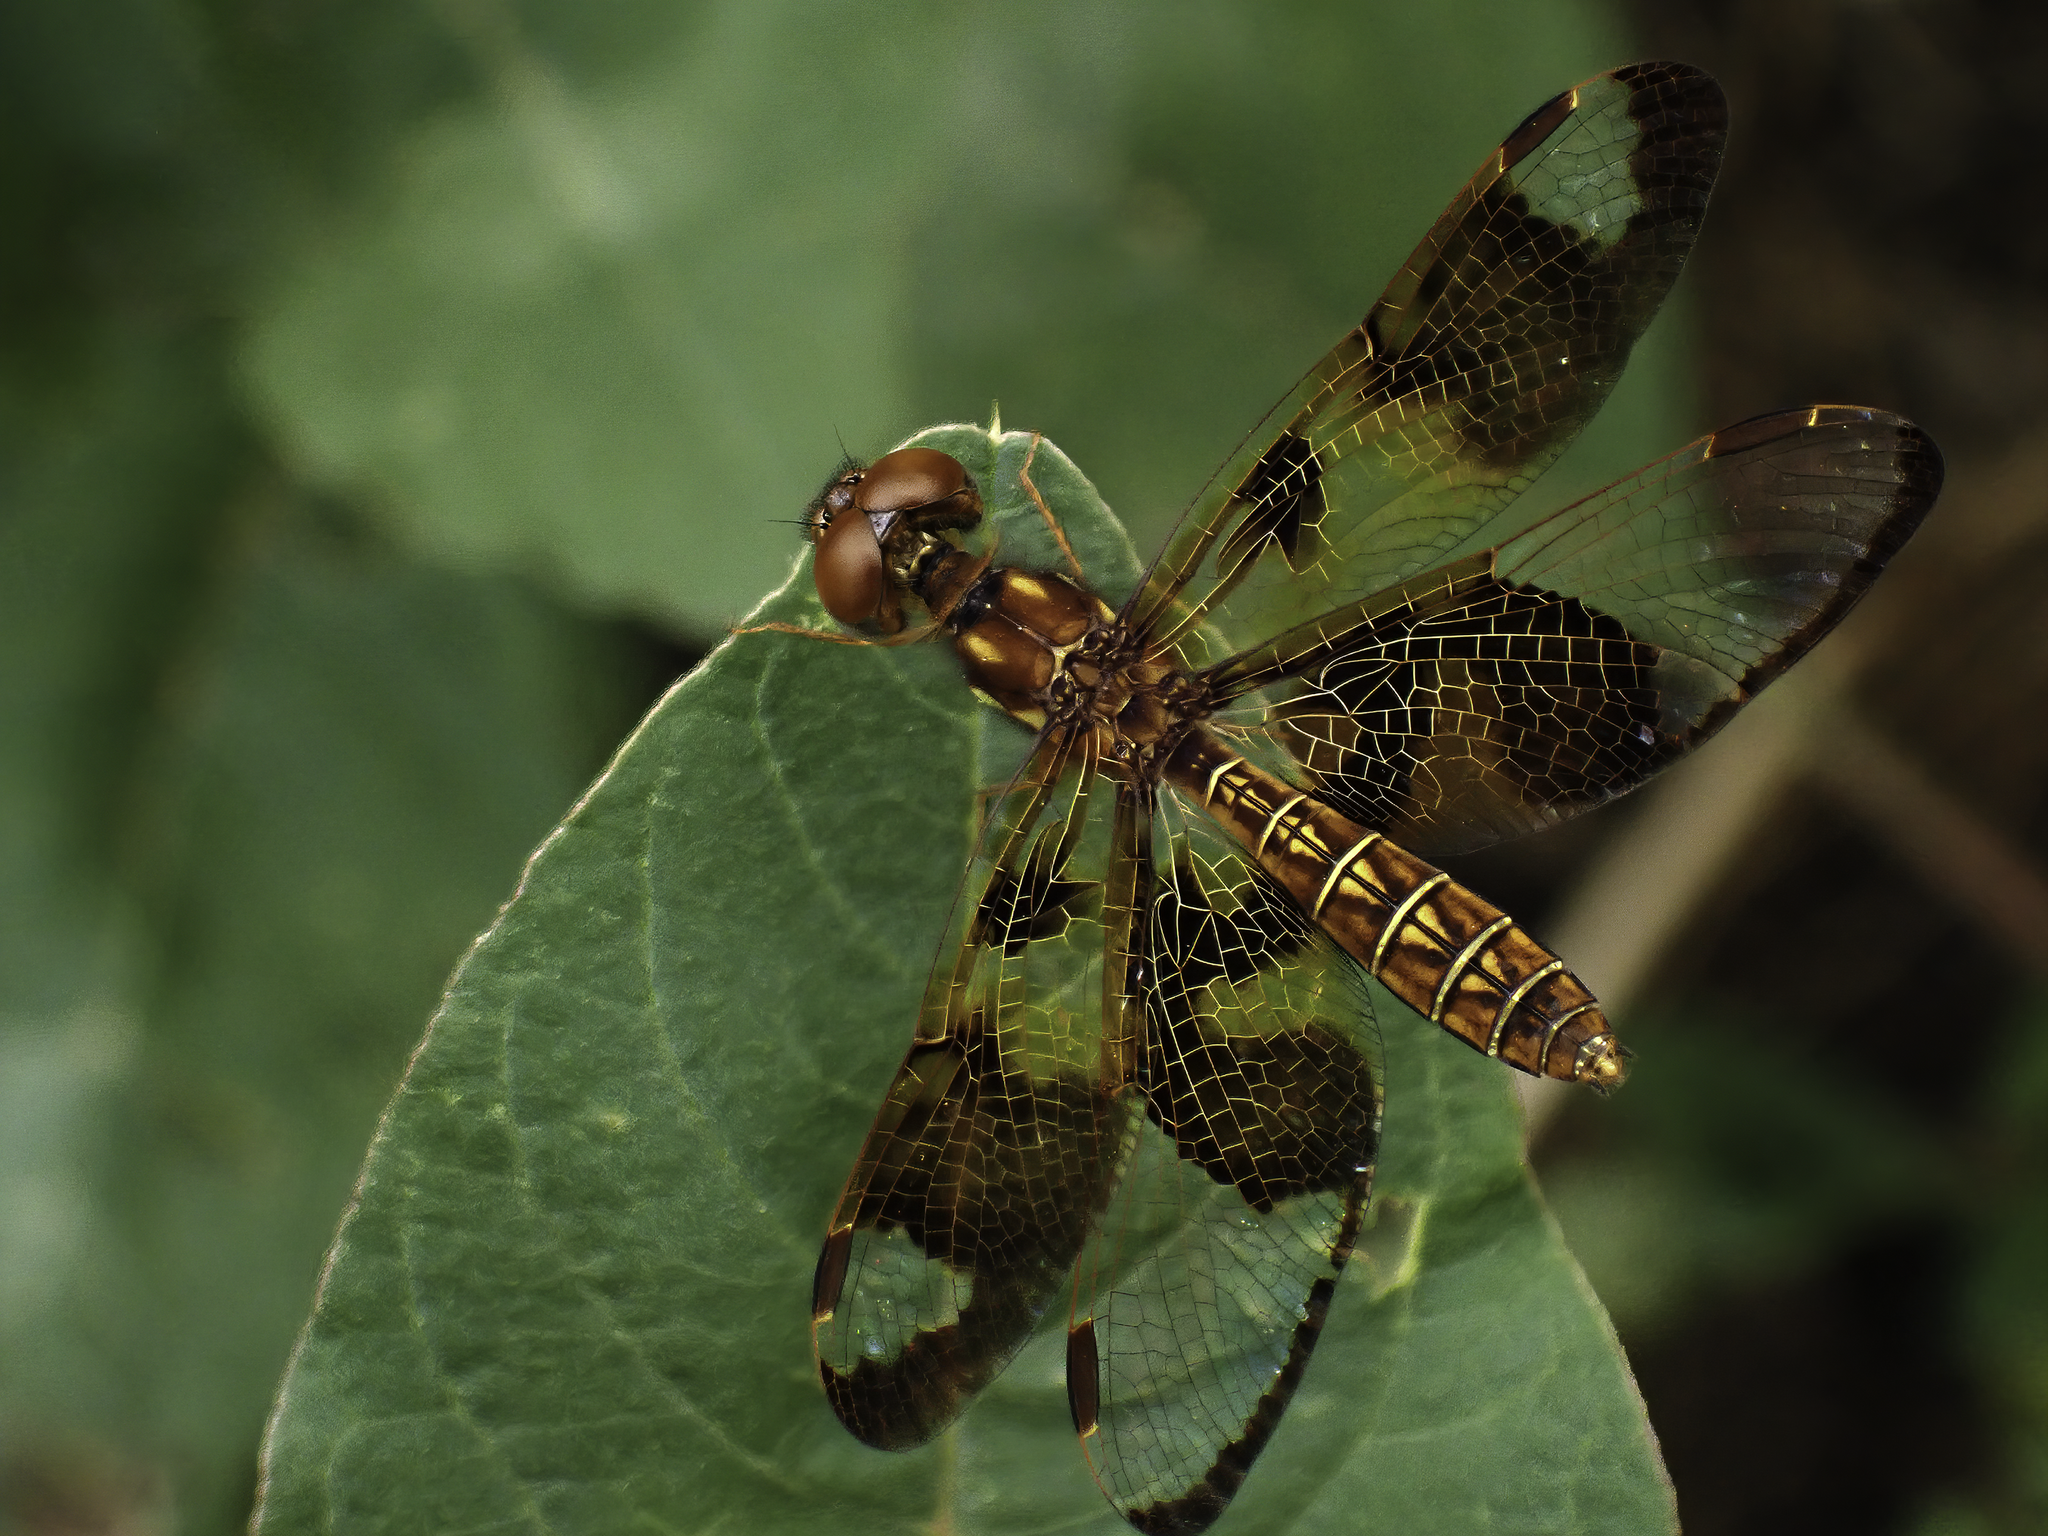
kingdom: Animalia
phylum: Arthropoda
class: Insecta
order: Odonata
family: Libellulidae
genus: Perithemis
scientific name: Perithemis tenera
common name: Eastern amberwing
